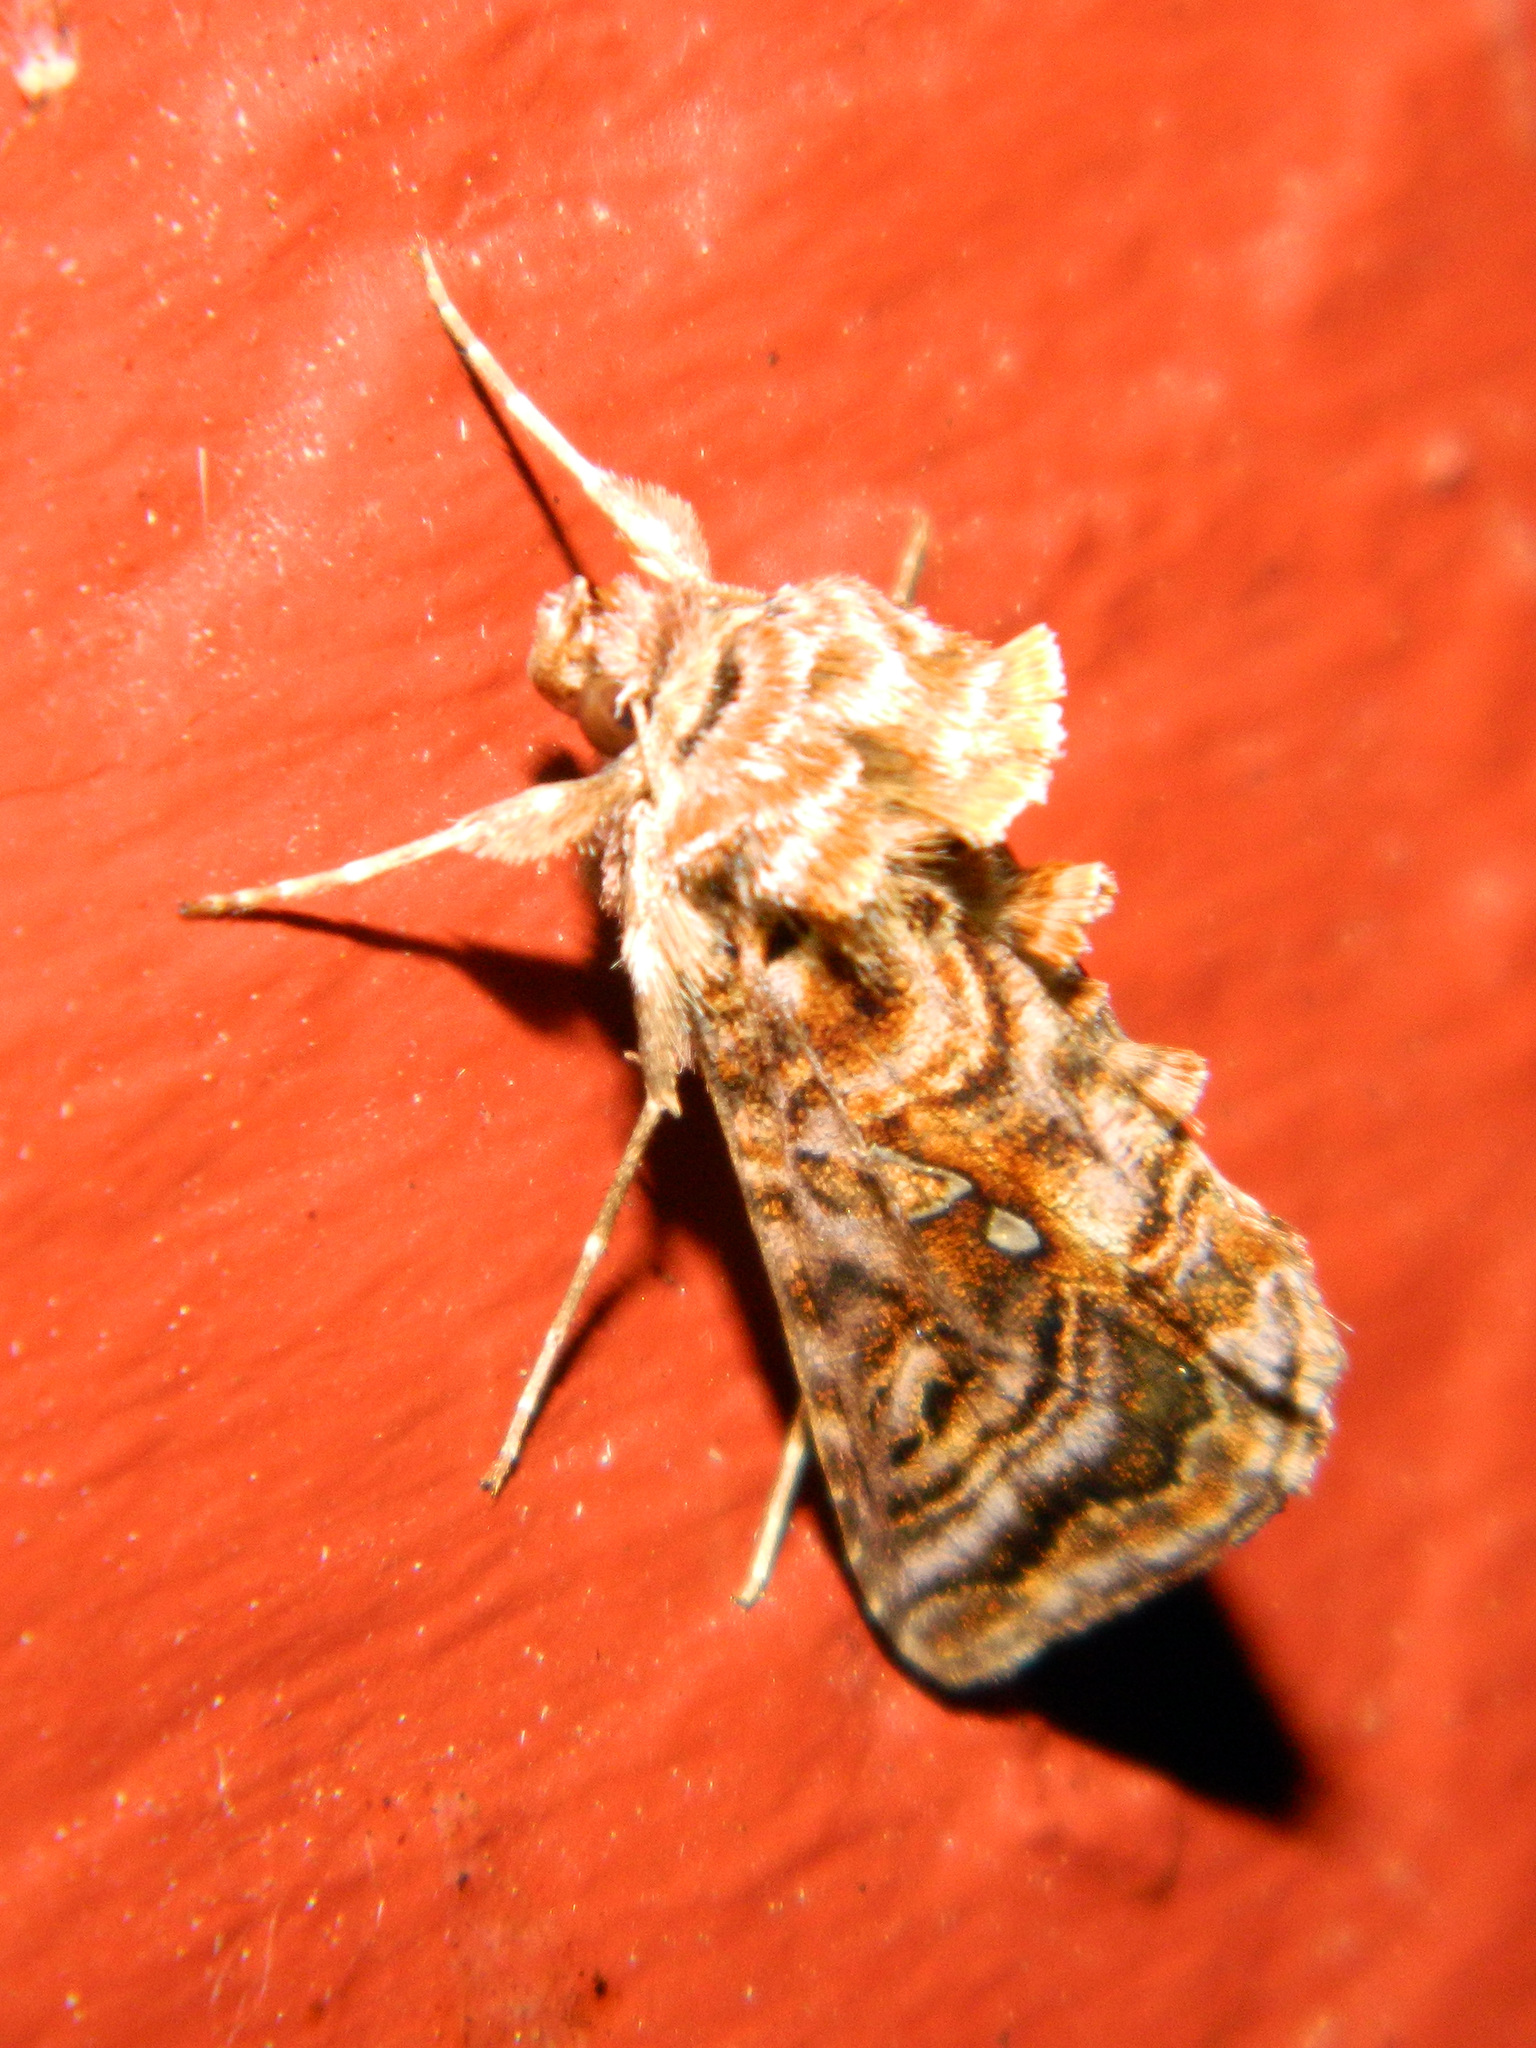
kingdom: Animalia
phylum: Arthropoda
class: Insecta
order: Lepidoptera
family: Noctuidae
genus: Autographa
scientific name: Autographa mappa
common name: Wavy chestnut y moth
